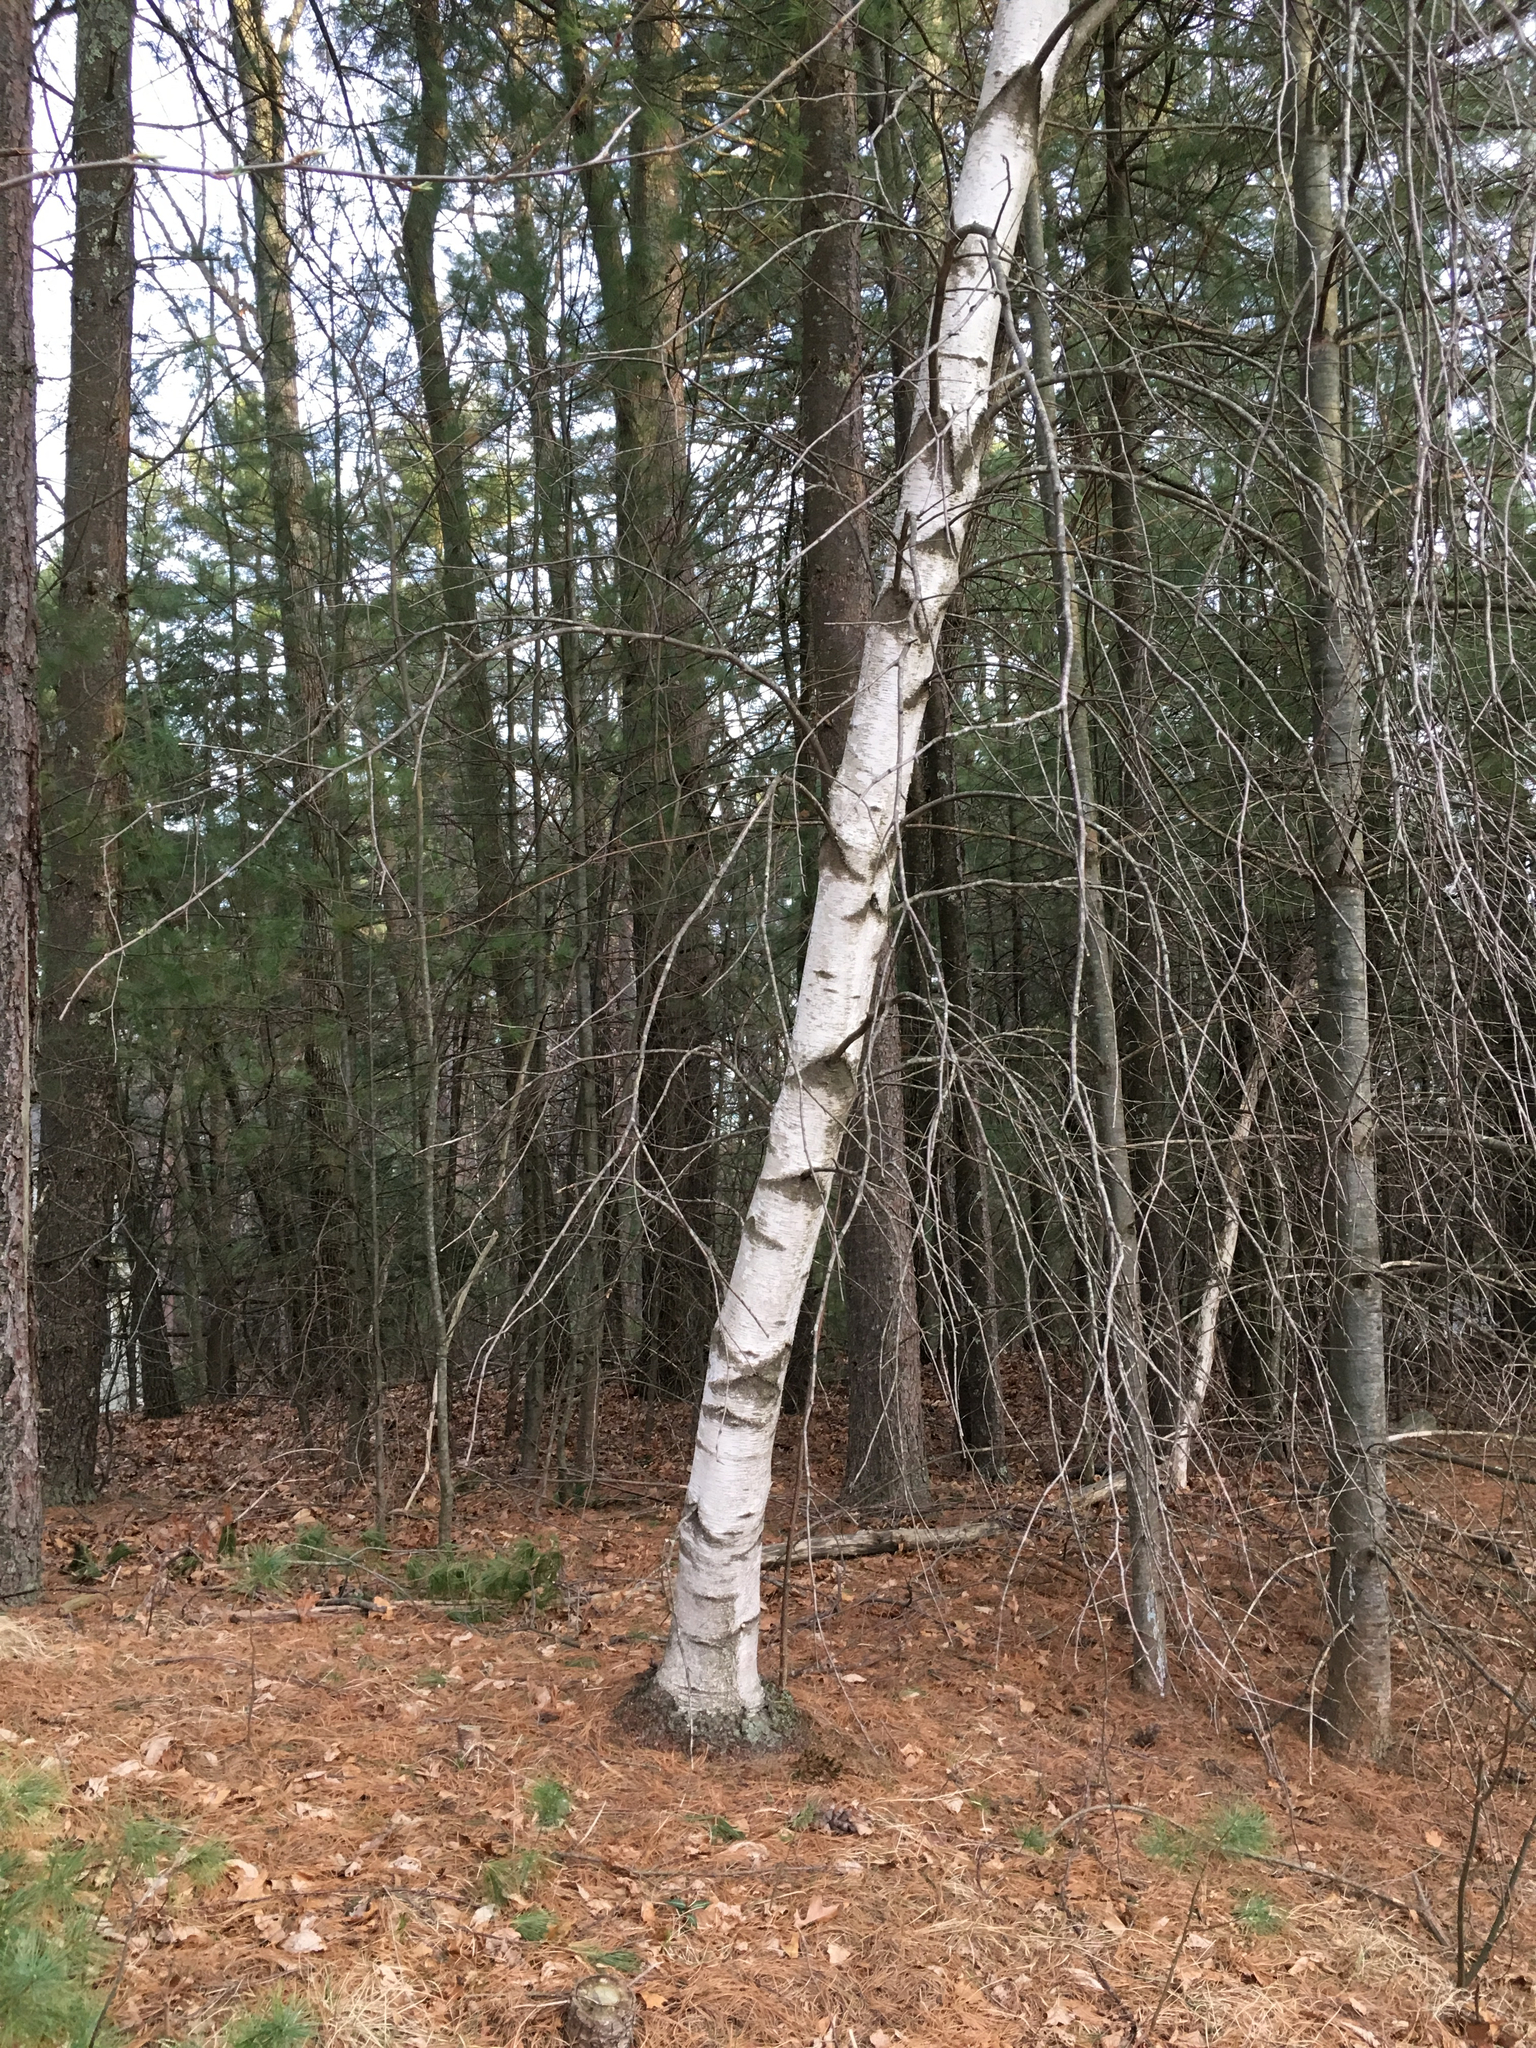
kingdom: Plantae
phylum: Tracheophyta
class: Magnoliopsida
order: Fagales
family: Betulaceae
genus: Betula
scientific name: Betula papyrifera
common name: Paper birch
